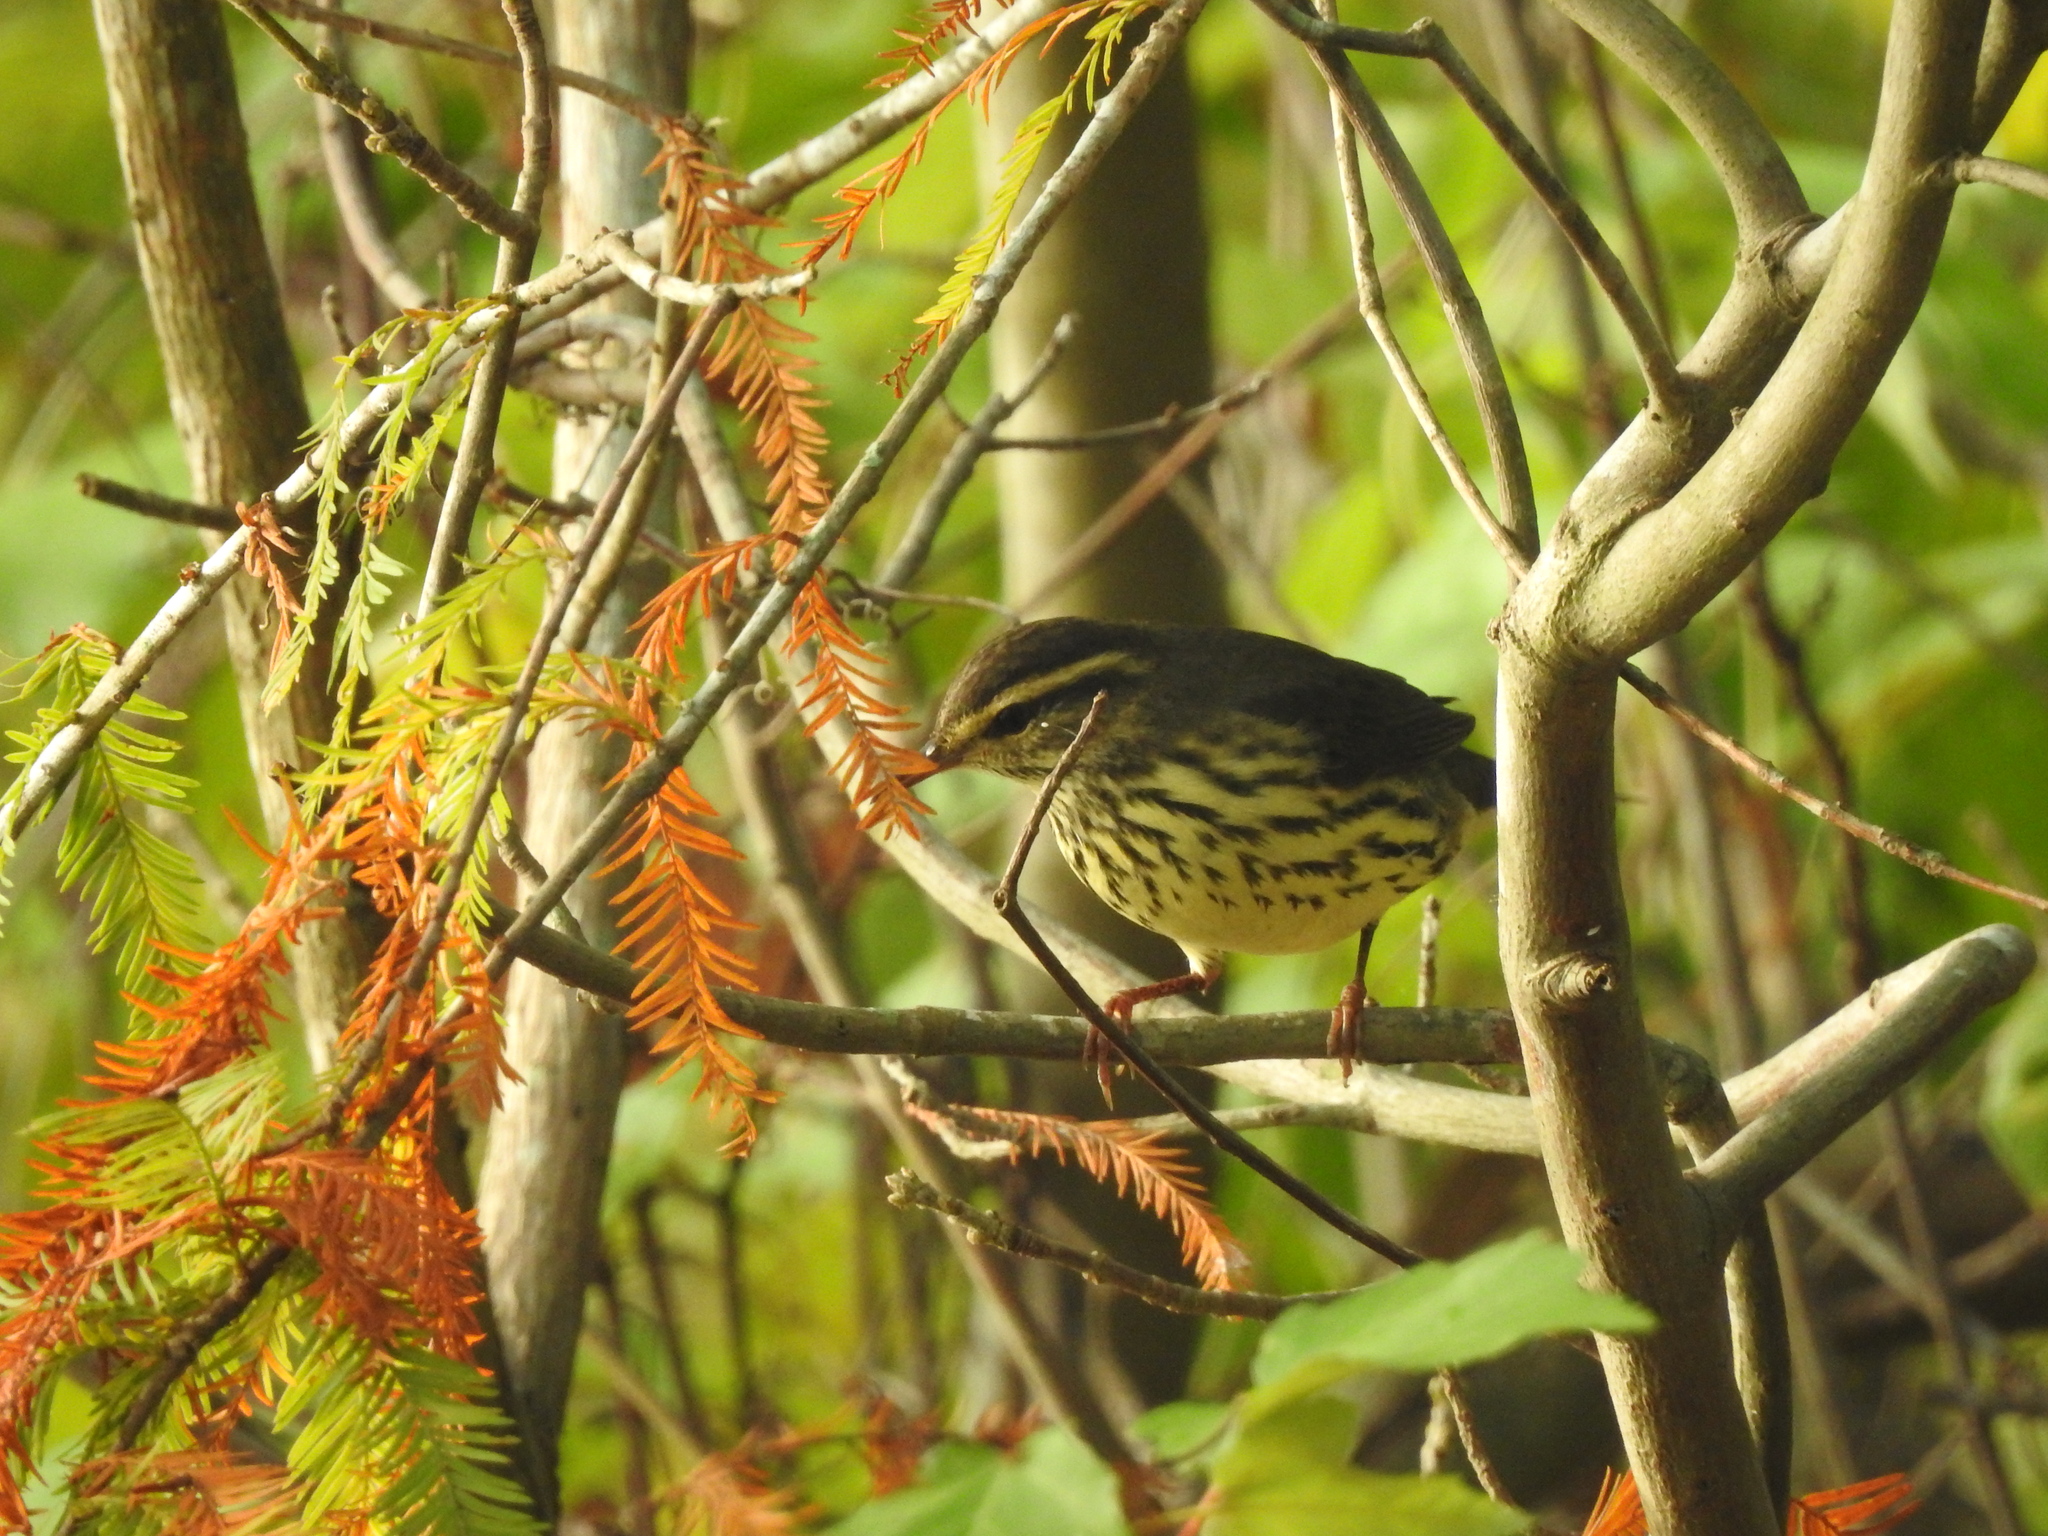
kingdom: Animalia
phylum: Chordata
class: Aves
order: Passeriformes
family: Parulidae
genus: Parkesia
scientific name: Parkesia noveboracensis
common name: Northern waterthrush
